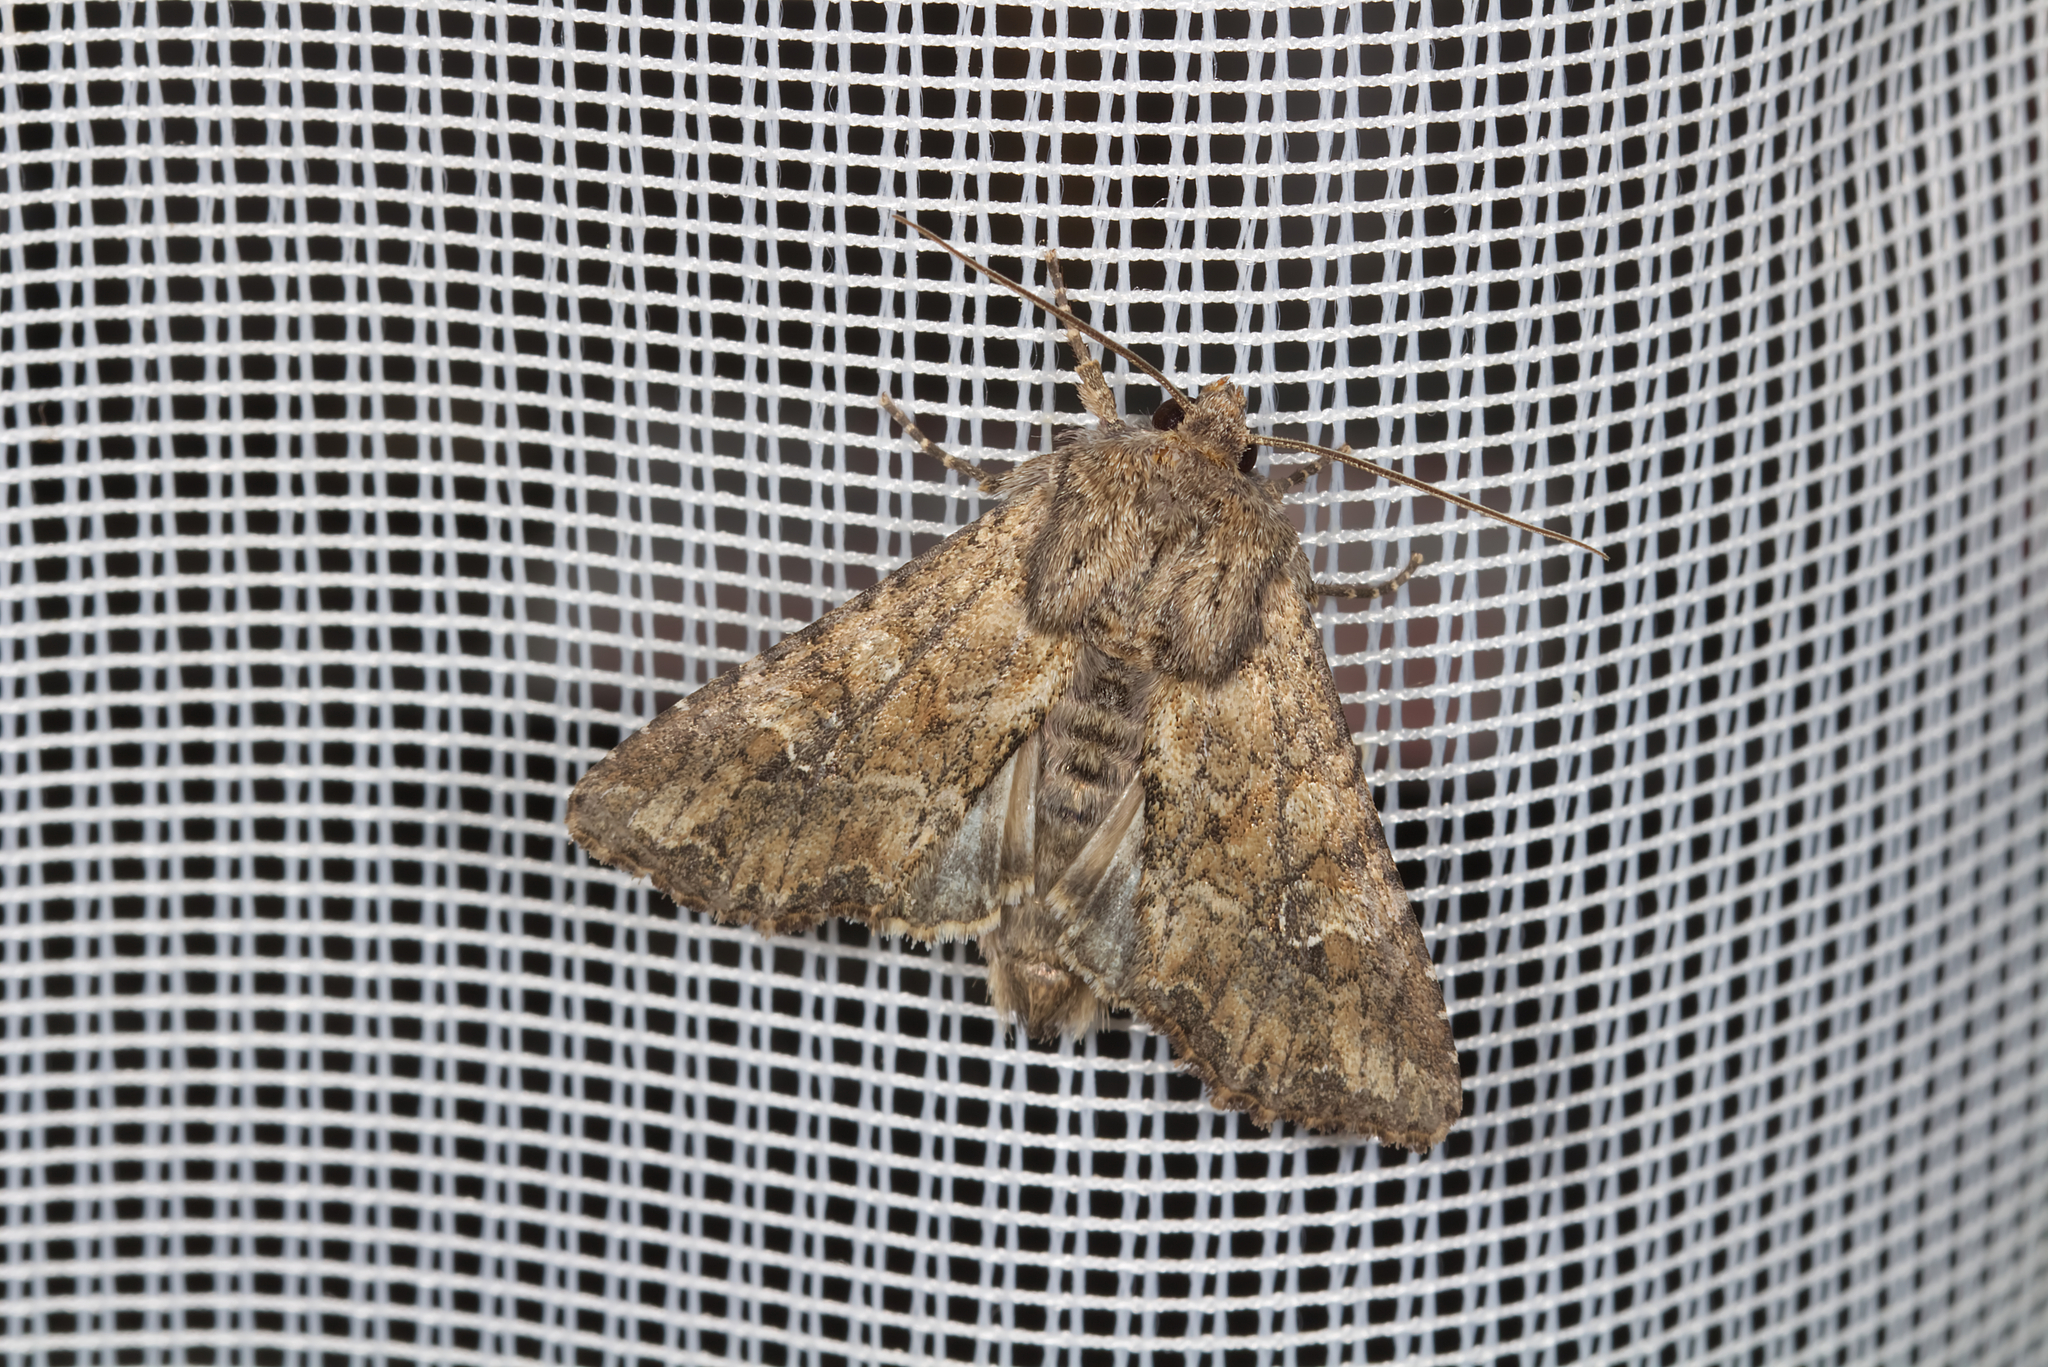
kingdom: Animalia
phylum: Arthropoda
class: Insecta
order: Lepidoptera
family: Noctuidae
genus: Apamea
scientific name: Apamea anceps
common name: Large nutmeg
